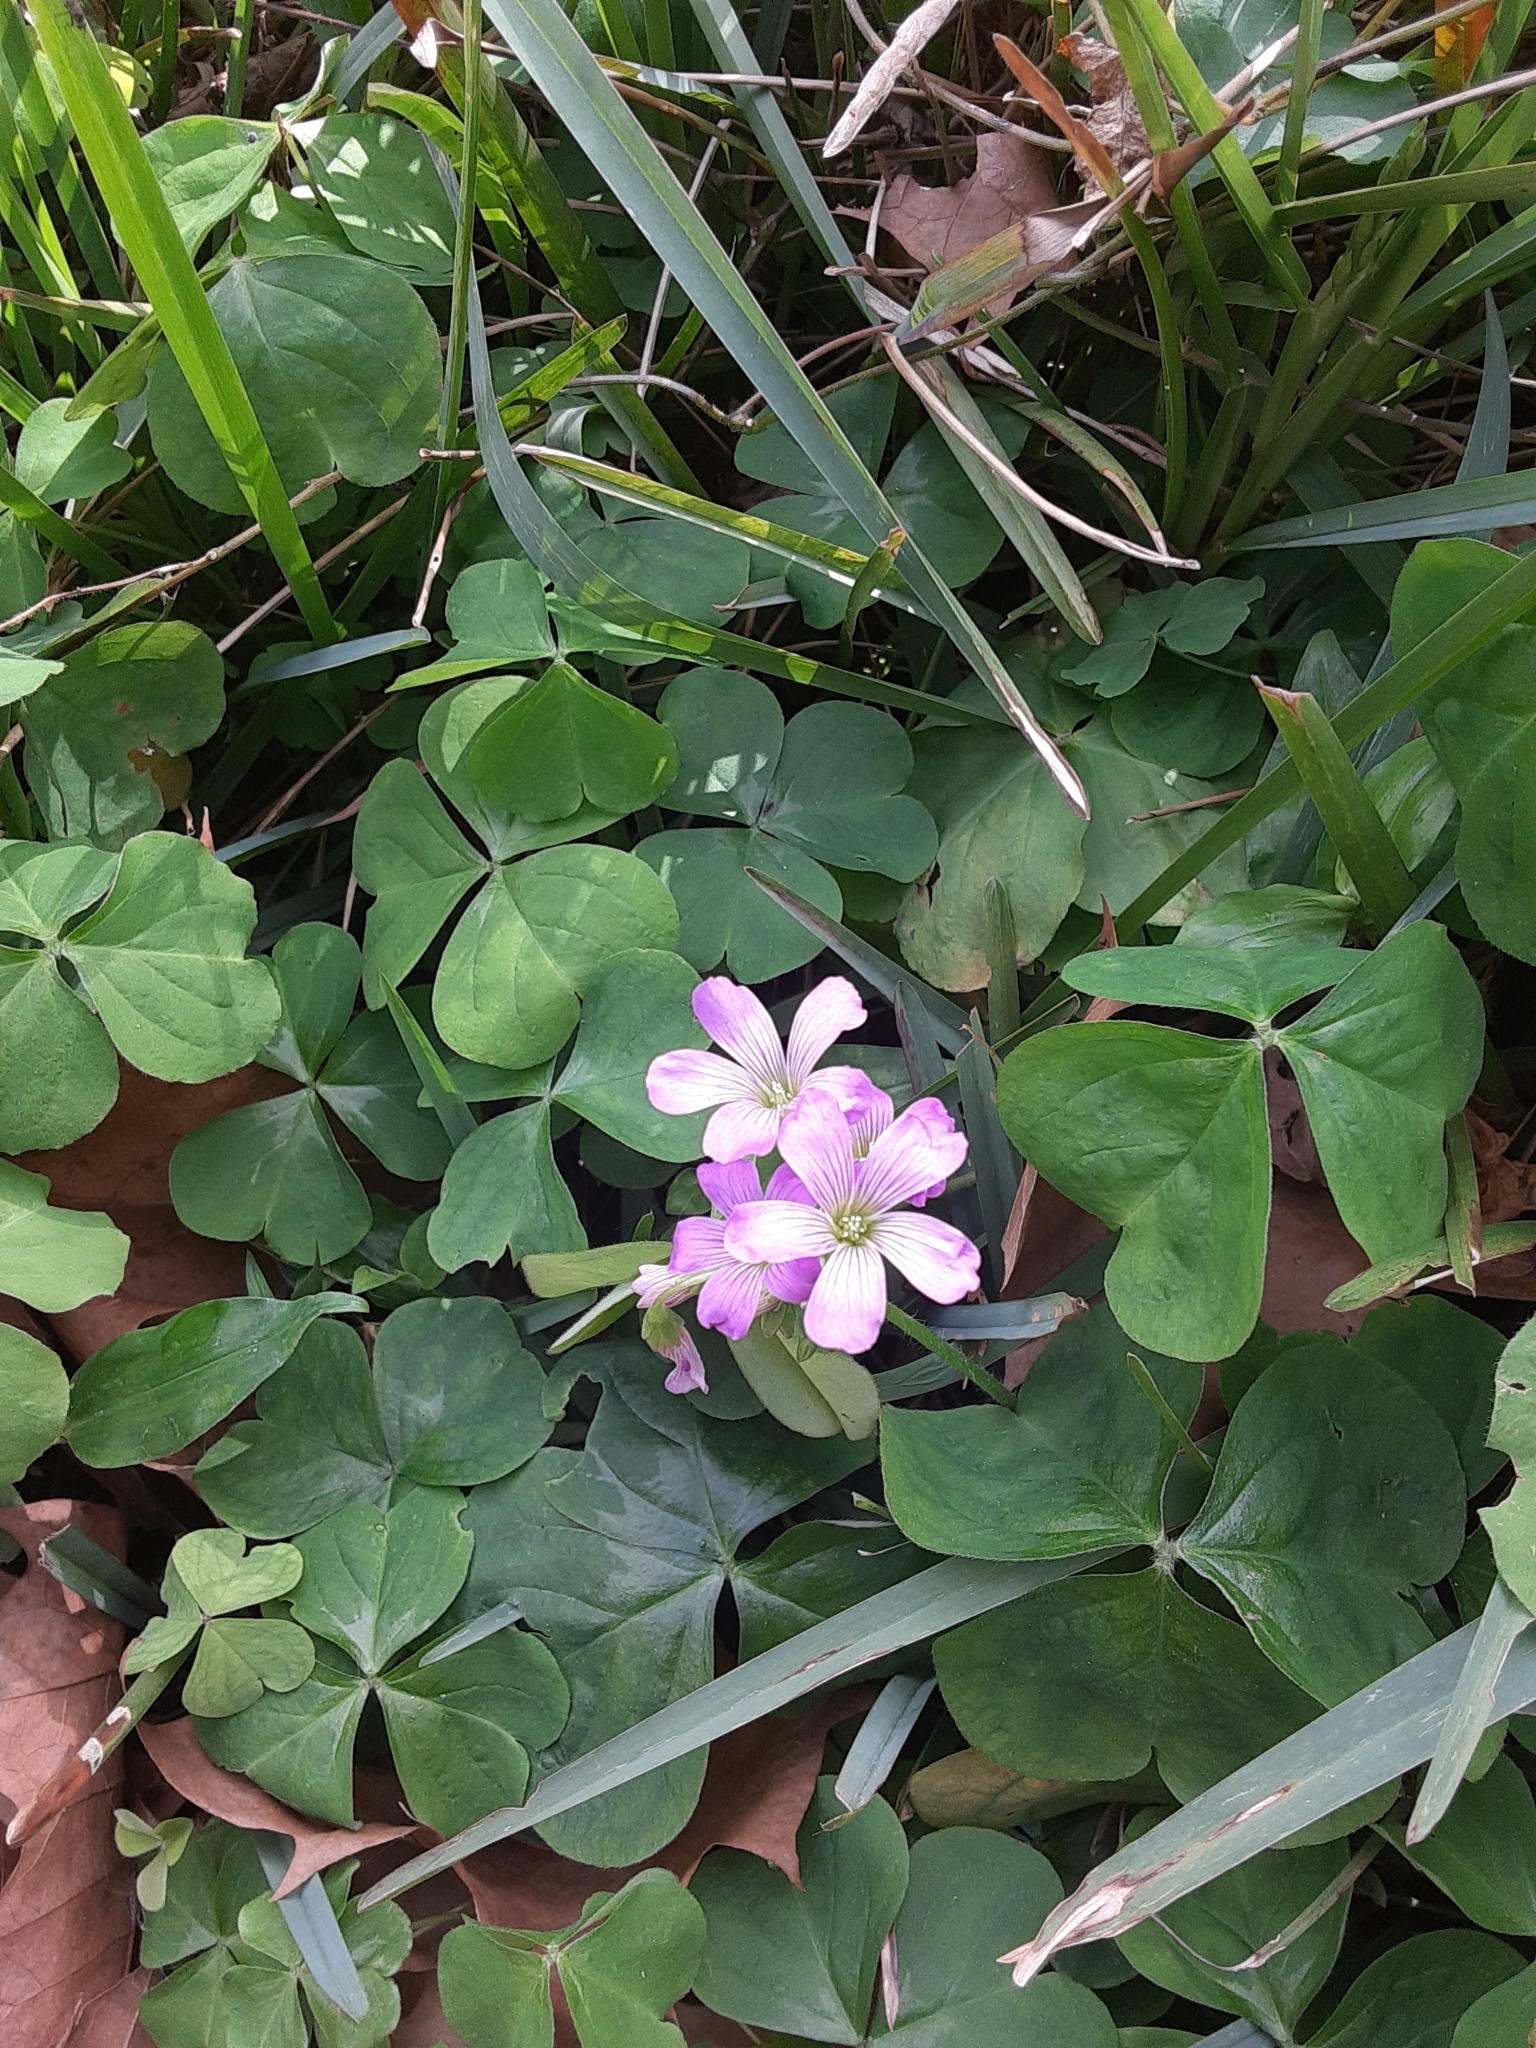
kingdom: Plantae
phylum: Tracheophyta
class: Magnoliopsida
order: Oxalidales
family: Oxalidaceae
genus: Oxalis
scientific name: Oxalis debilis
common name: Large-flowered pink-sorrel
